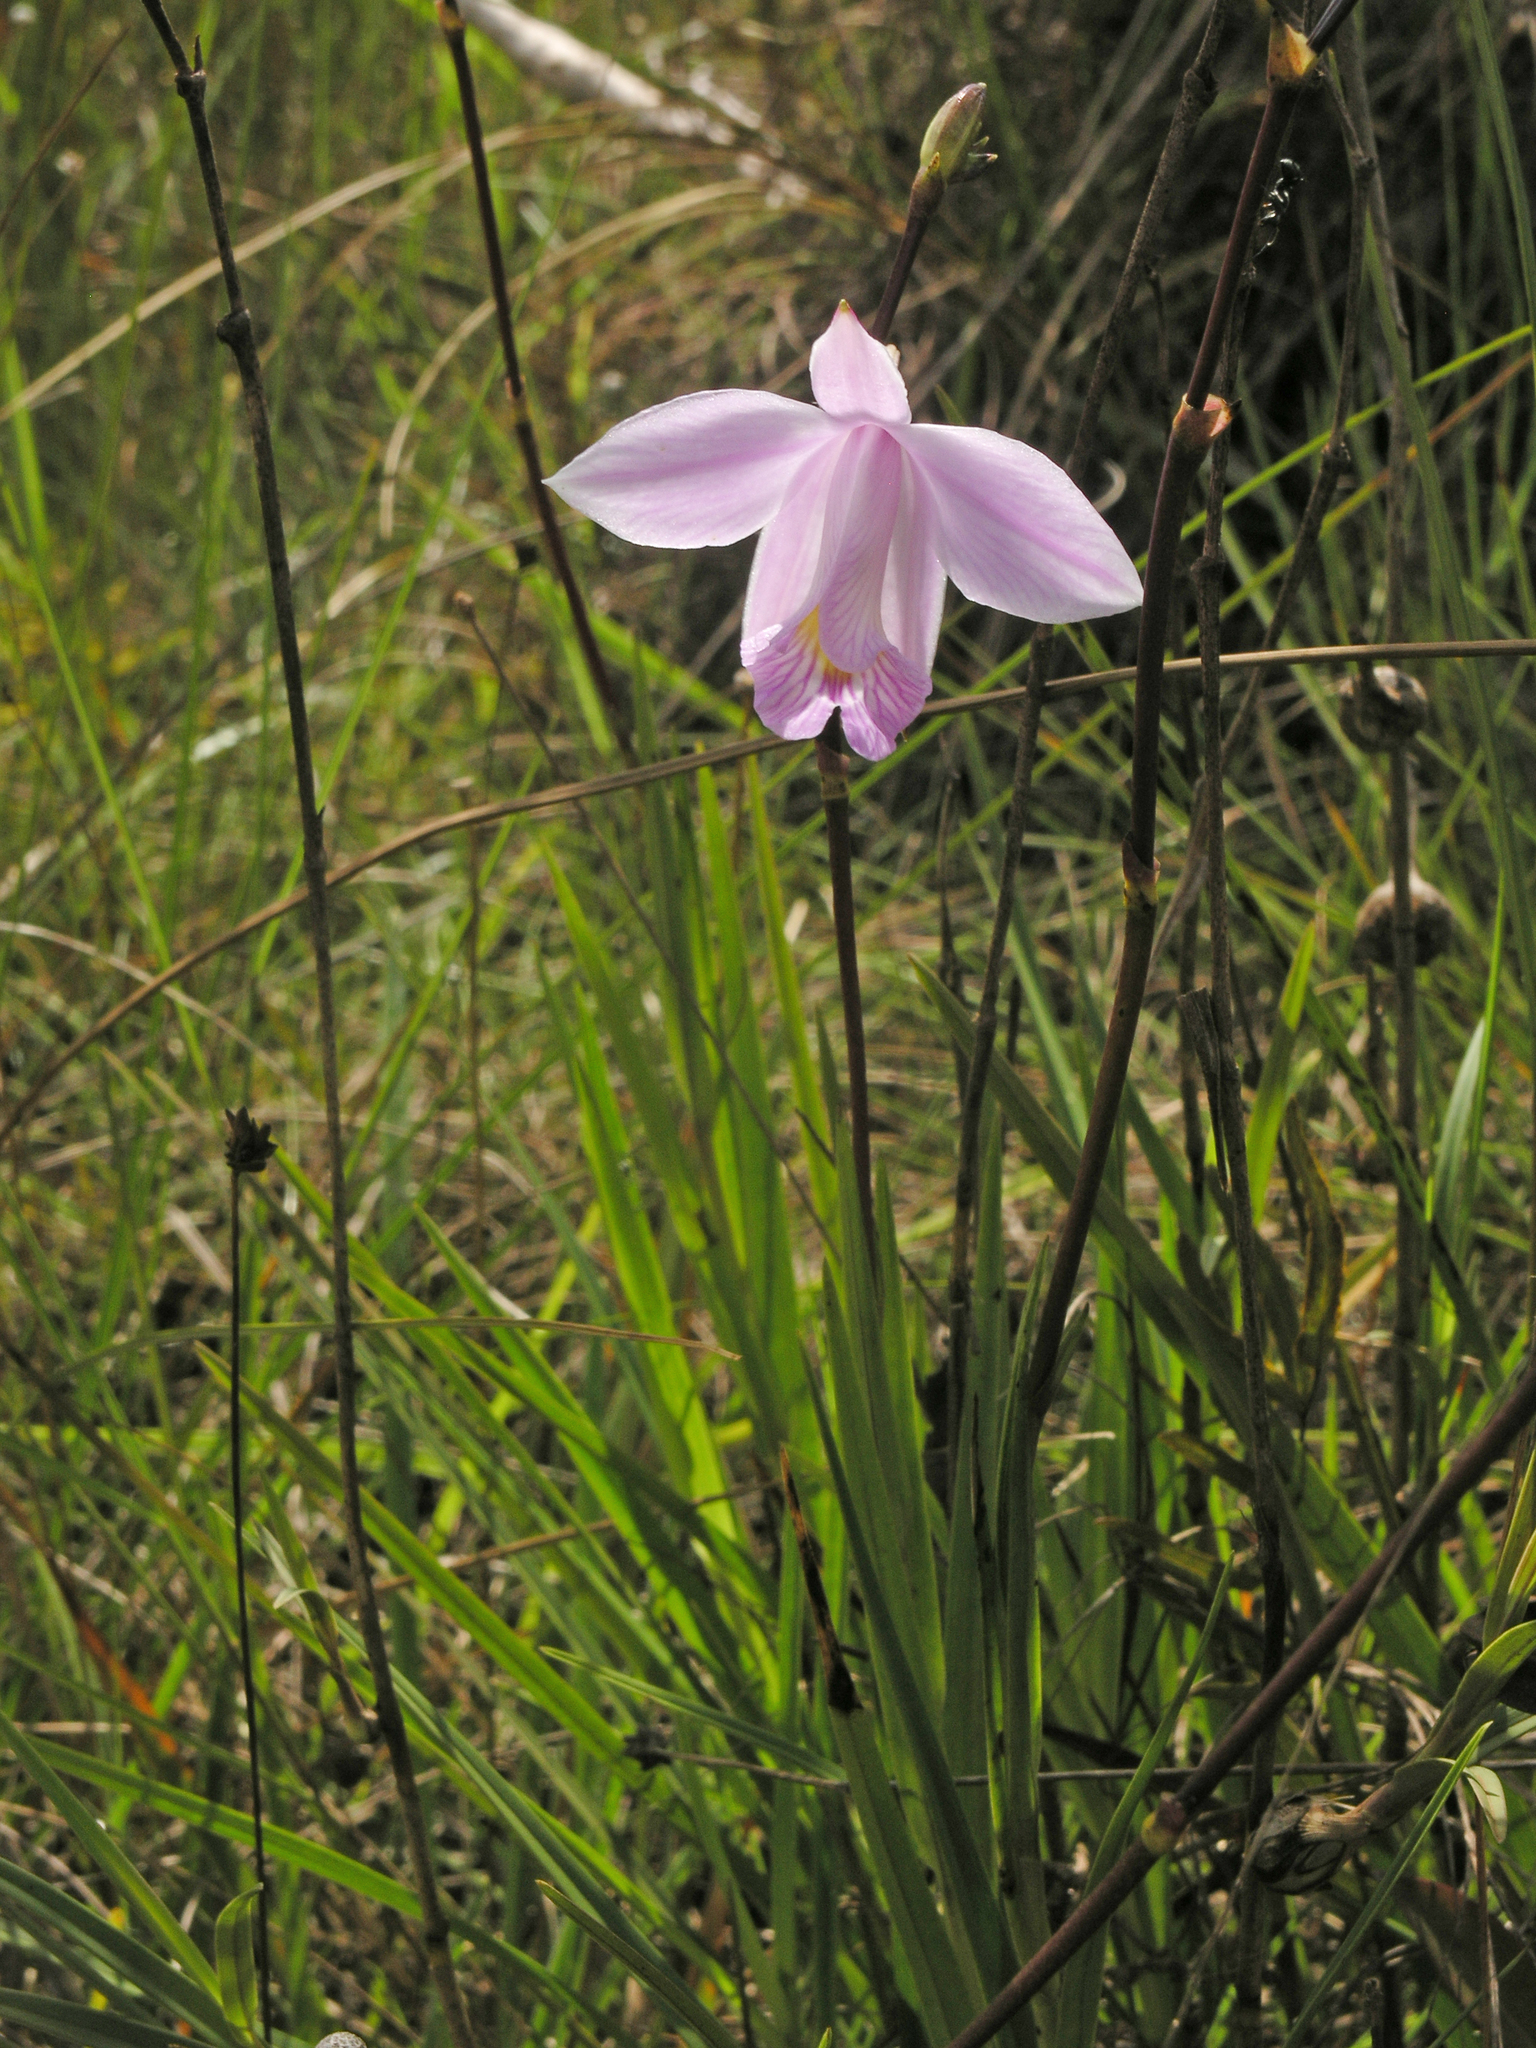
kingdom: Plantae
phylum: Tracheophyta
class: Liliopsida
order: Asparagales
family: Orchidaceae
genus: Arundina
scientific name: Arundina graminifolia
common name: Bamboo orchid
